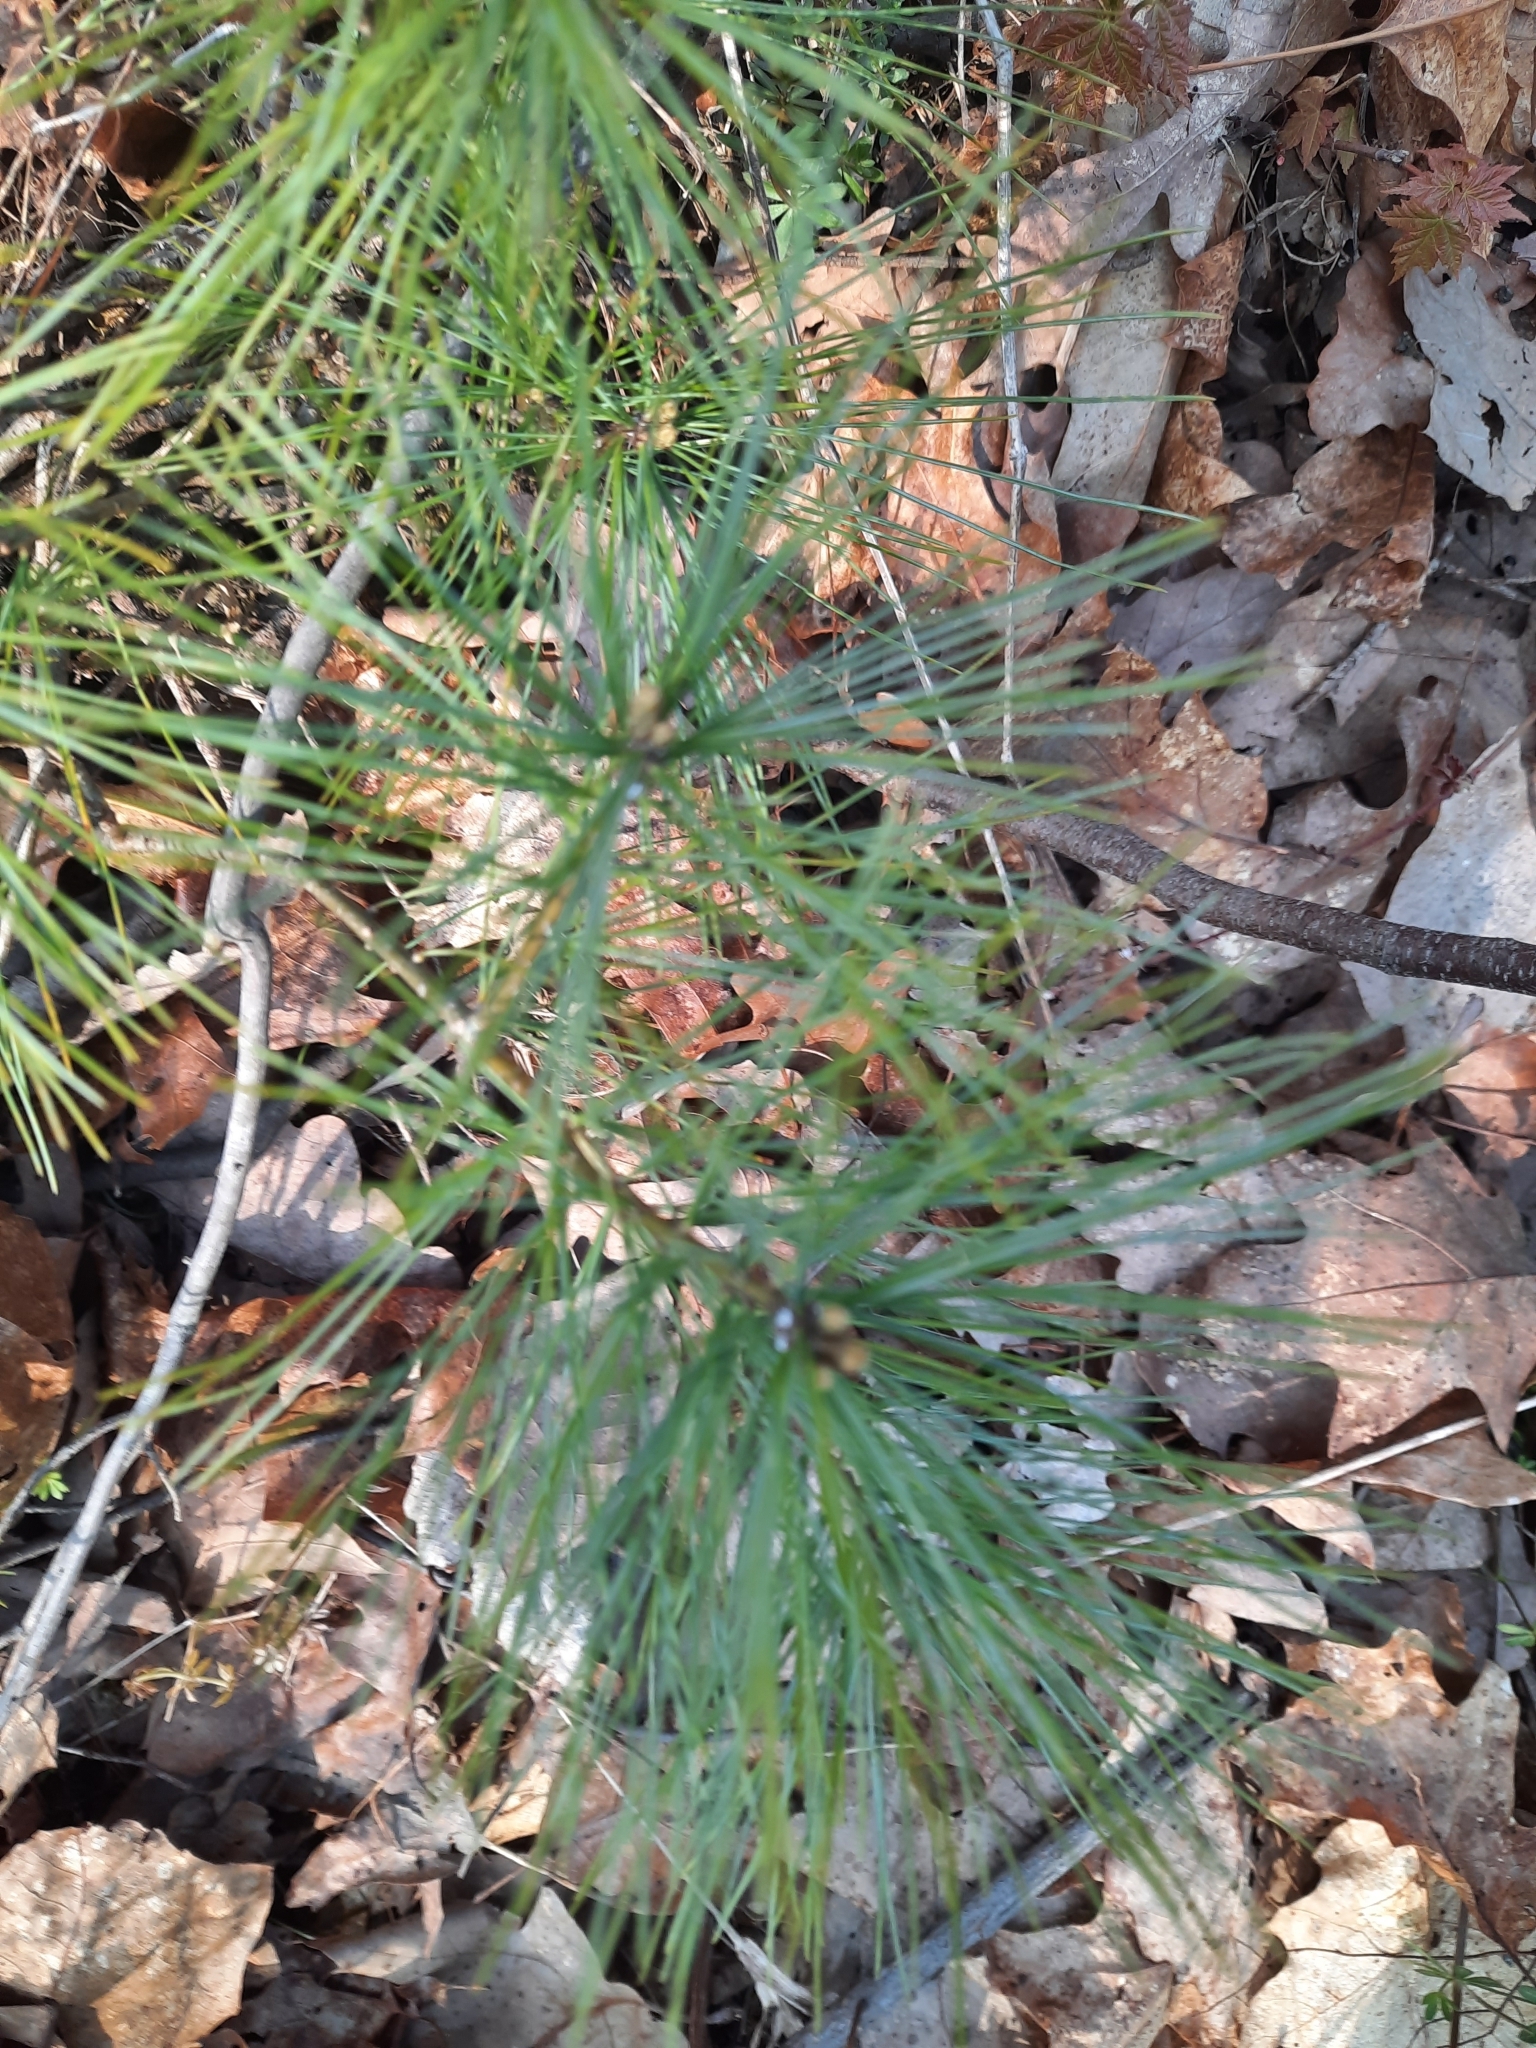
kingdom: Plantae
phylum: Tracheophyta
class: Pinopsida
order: Pinales
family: Pinaceae
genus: Pinus
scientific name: Pinus strobus
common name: Weymouth pine
